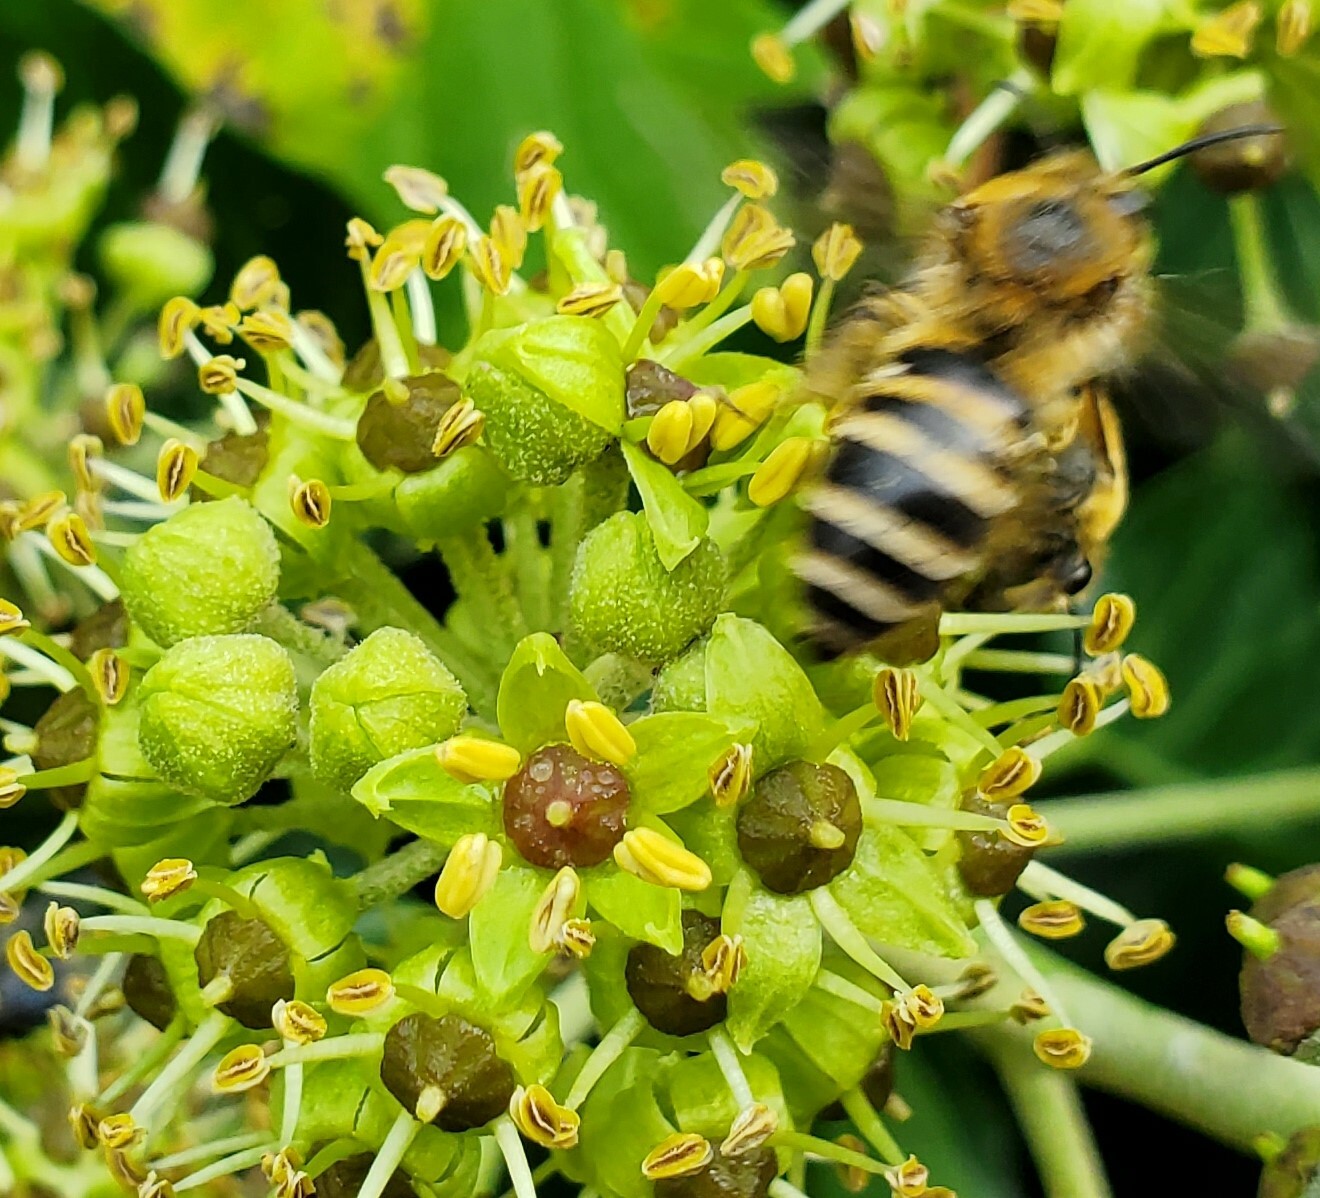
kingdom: Animalia
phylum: Arthropoda
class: Insecta
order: Hymenoptera
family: Colletidae
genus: Colletes
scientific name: Colletes hederae
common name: Ivy bee
